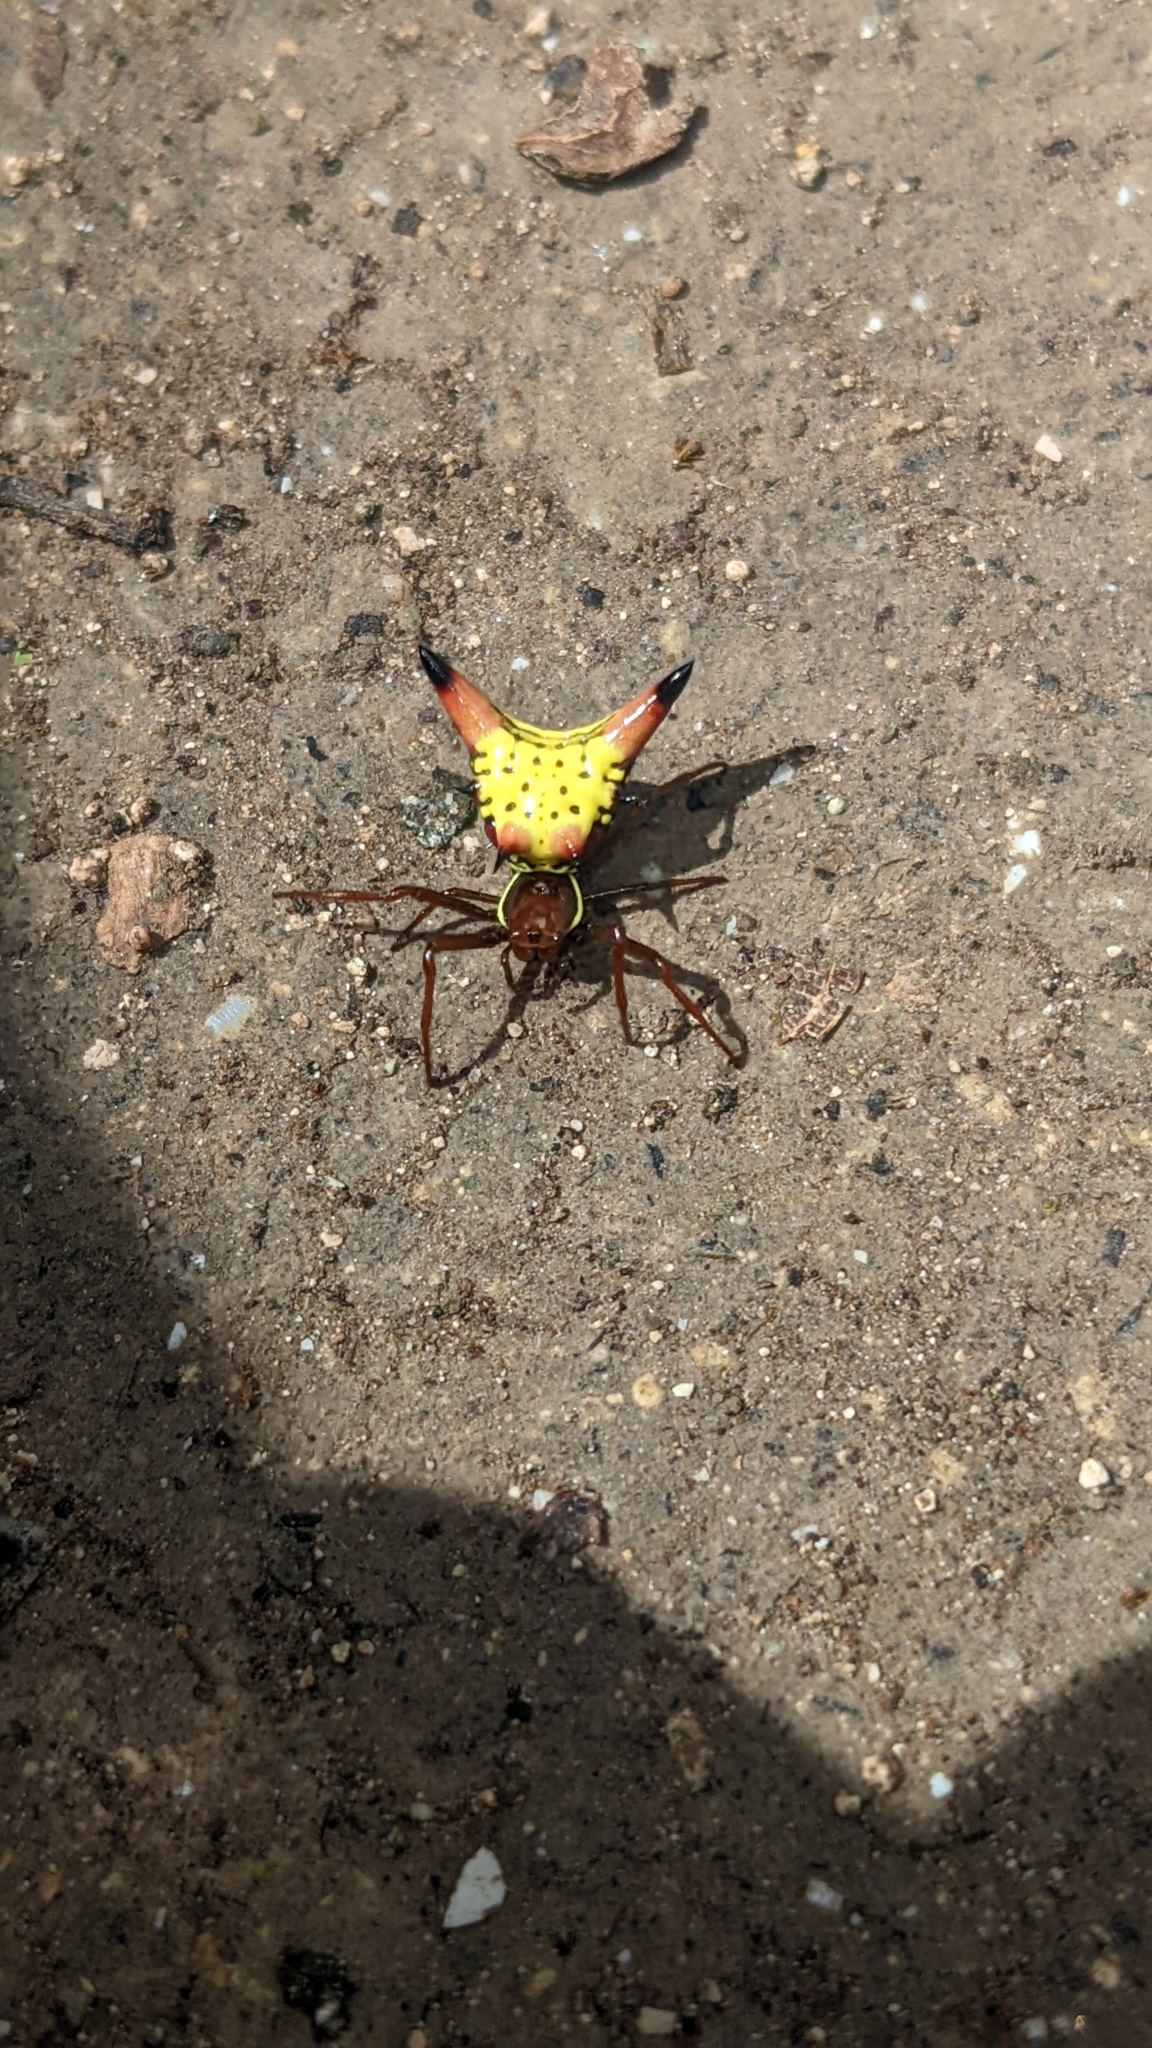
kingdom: Animalia
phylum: Arthropoda
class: Arachnida
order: Araneae
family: Araneidae
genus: Micrathena
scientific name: Micrathena sagittata
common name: Orb weavers
